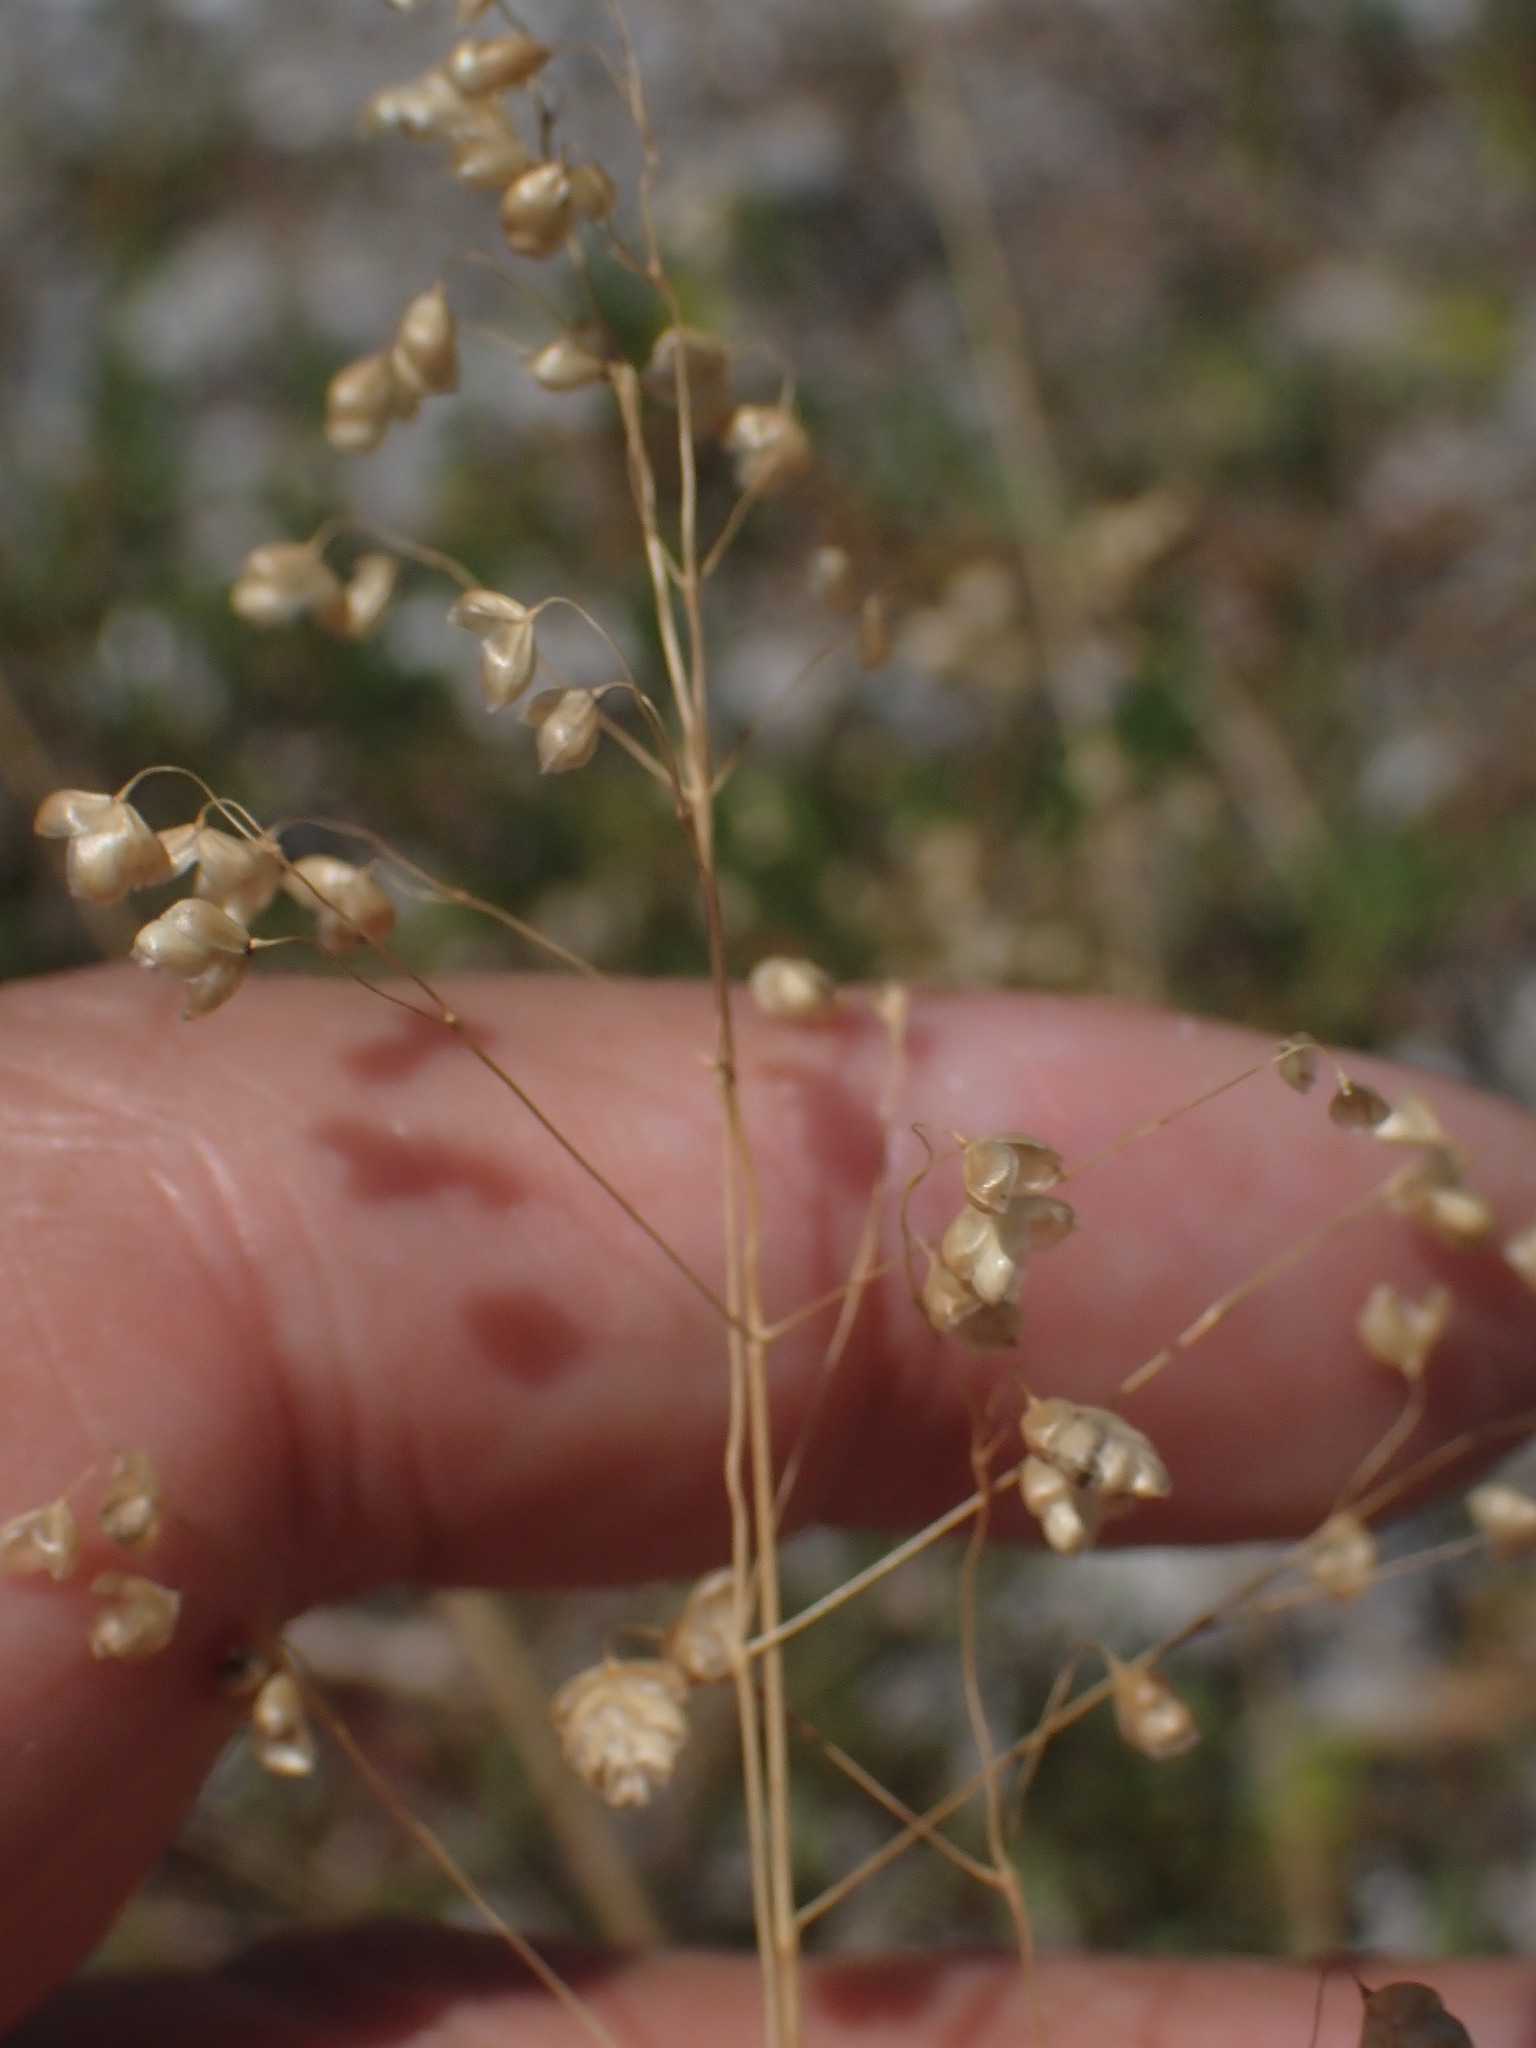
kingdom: Plantae
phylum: Tracheophyta
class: Liliopsida
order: Poales
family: Poaceae
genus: Briza
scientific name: Briza media
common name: Quaking grass
